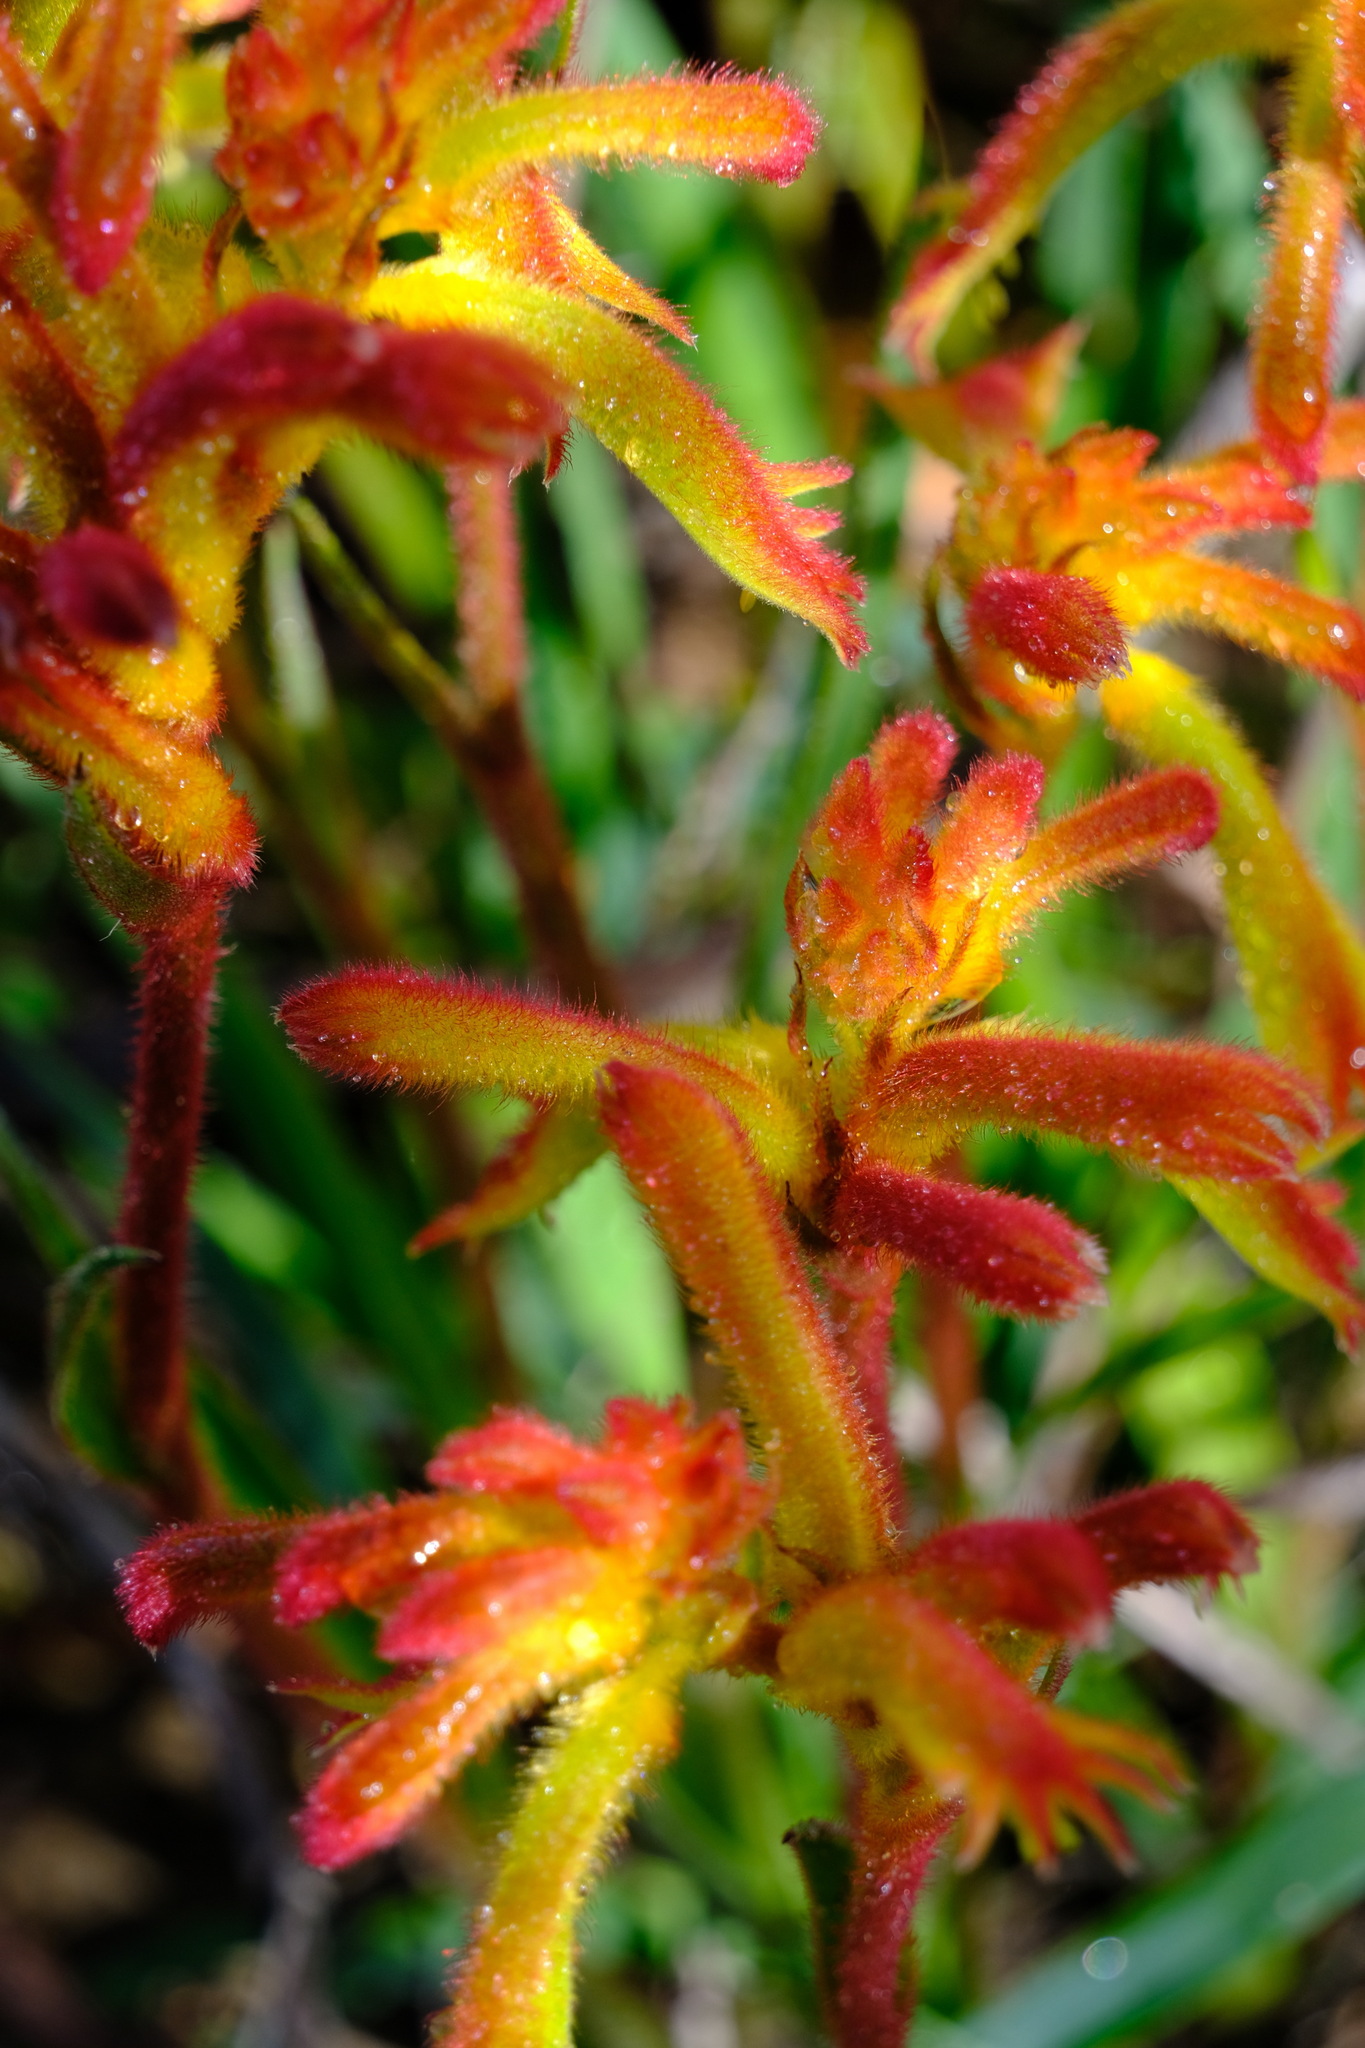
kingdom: Plantae
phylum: Tracheophyta
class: Liliopsida
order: Commelinales
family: Haemodoraceae
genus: Anigozanthos
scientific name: Anigozanthos humilis
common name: Cat's-paw
